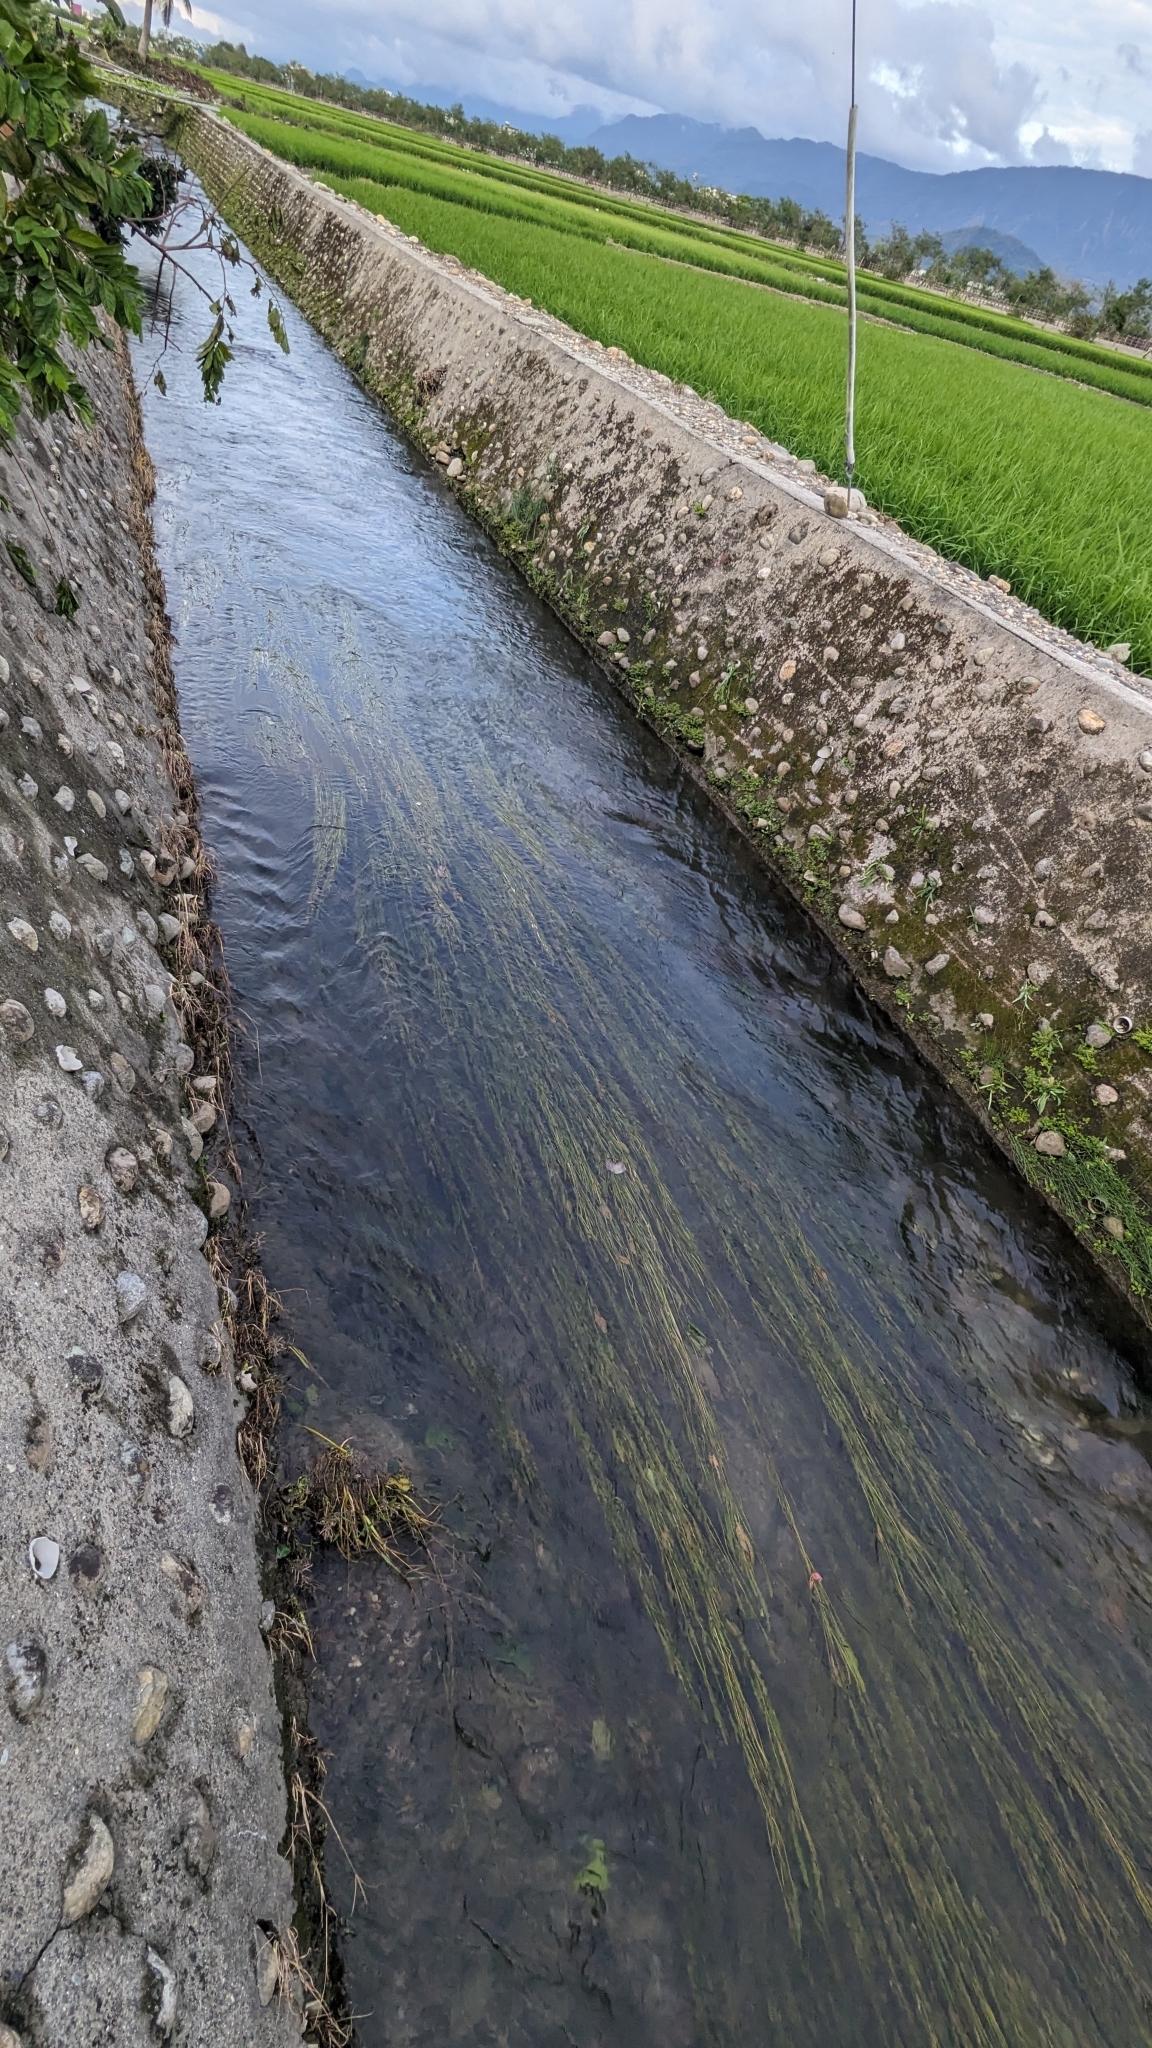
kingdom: Plantae
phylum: Tracheophyta
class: Liliopsida
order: Alismatales
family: Potamogetonaceae
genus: Potamogeton
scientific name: Potamogeton wrightii
